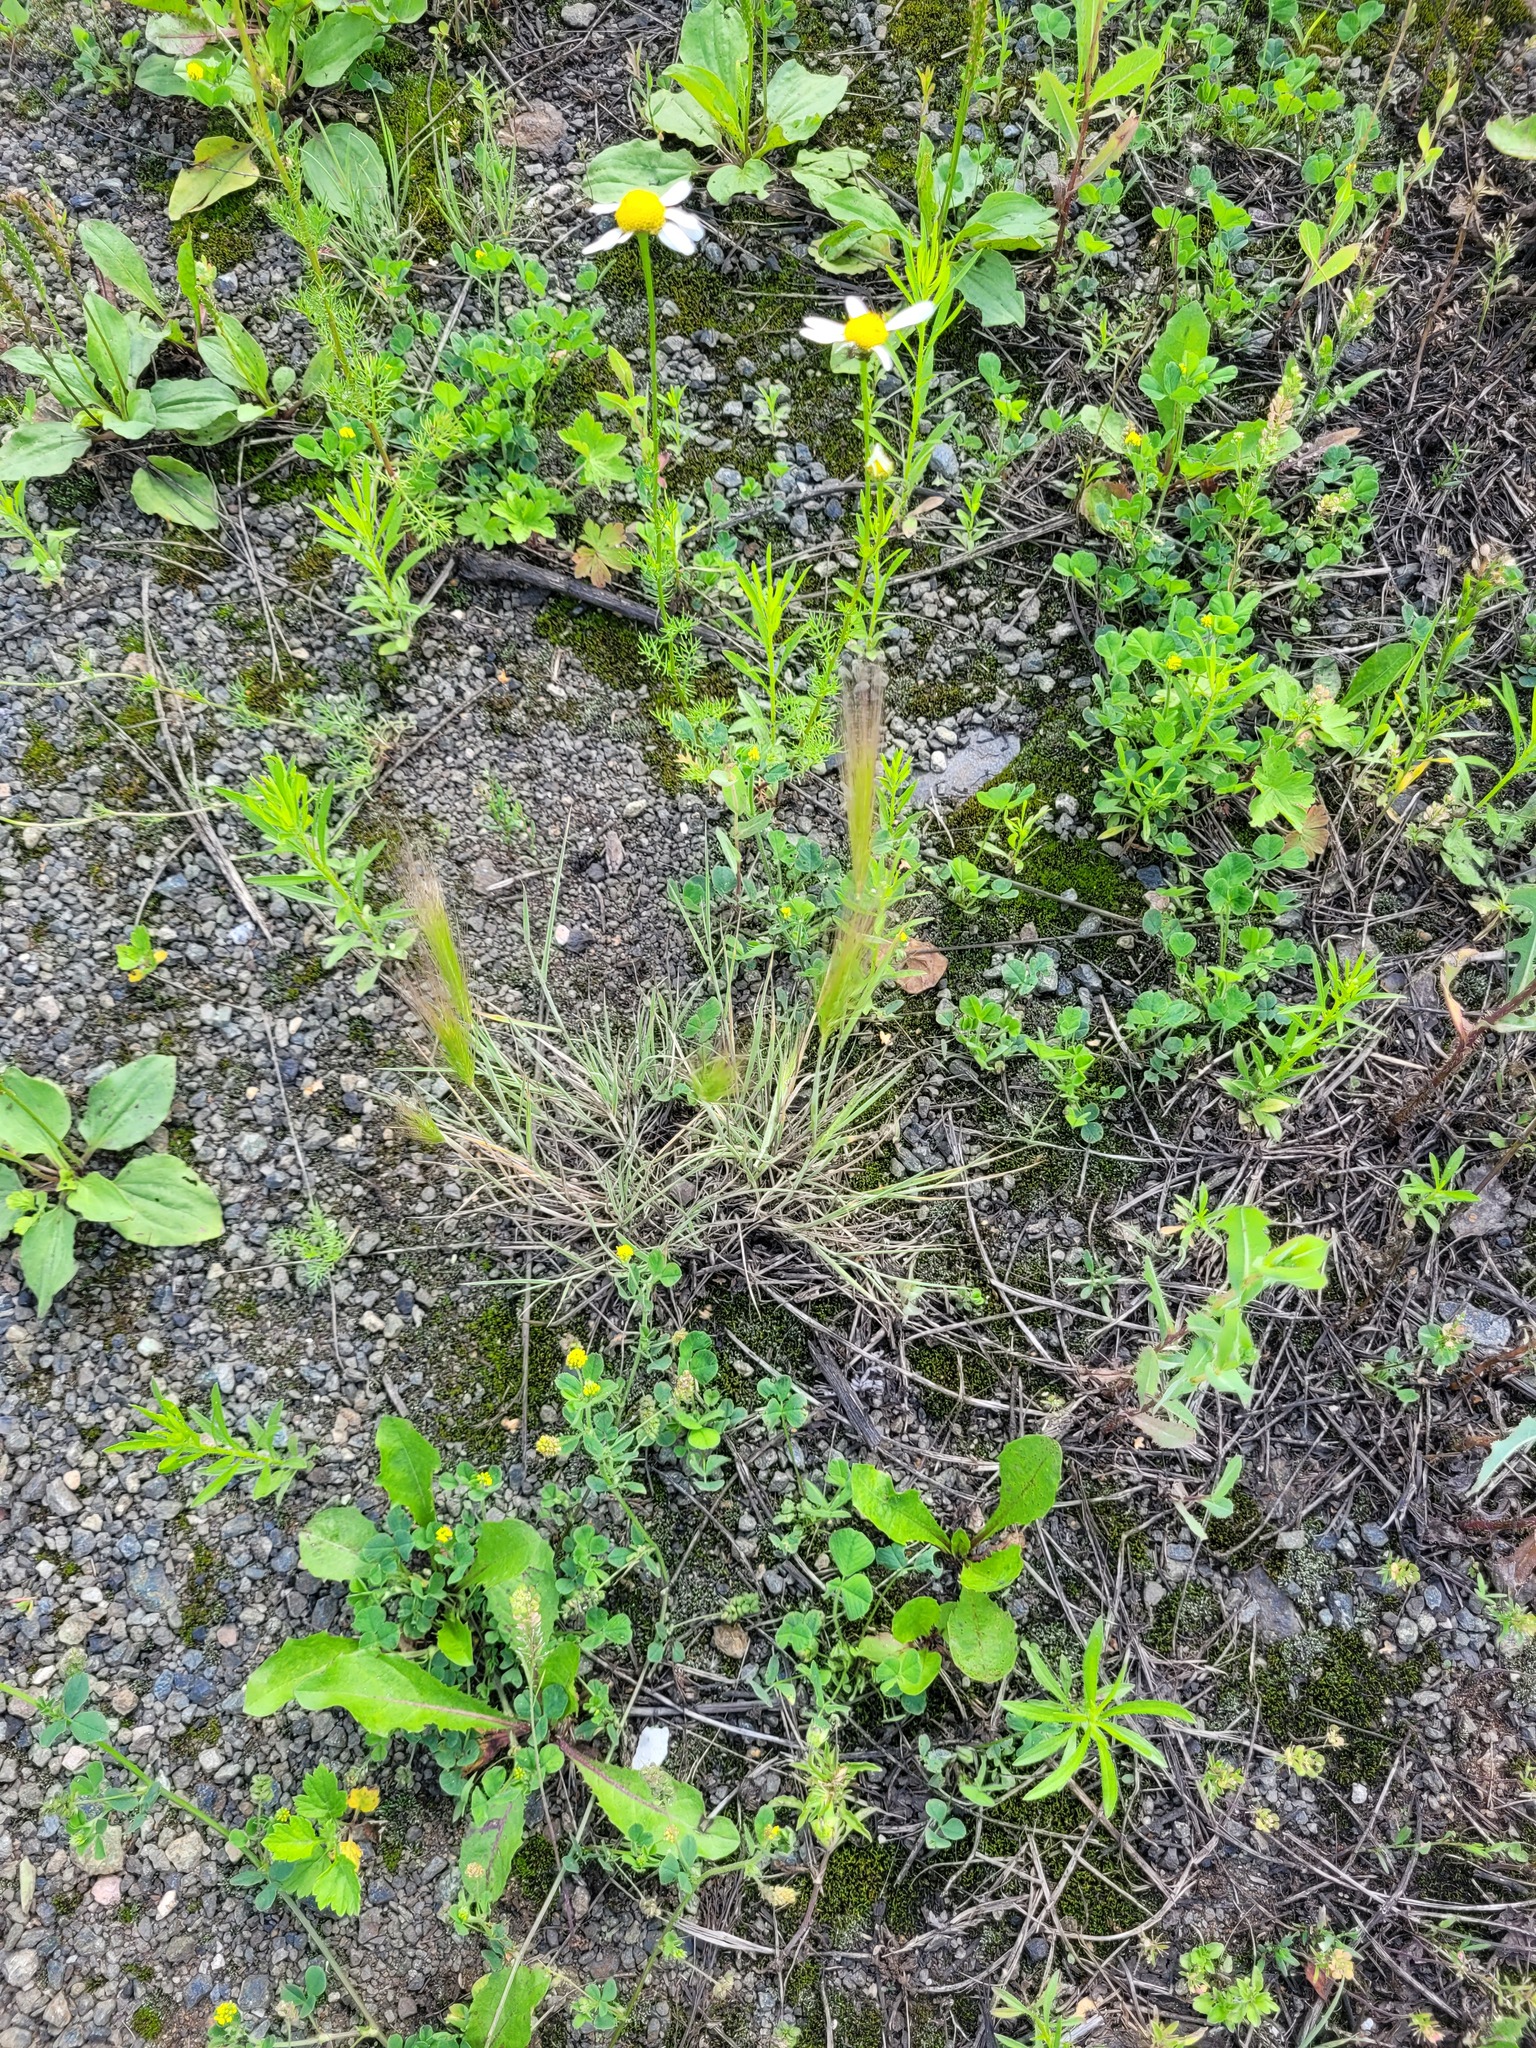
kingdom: Plantae
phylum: Tracheophyta
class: Liliopsida
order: Poales
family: Poaceae
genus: Hordeum
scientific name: Hordeum jubatum
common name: Foxtail barley
